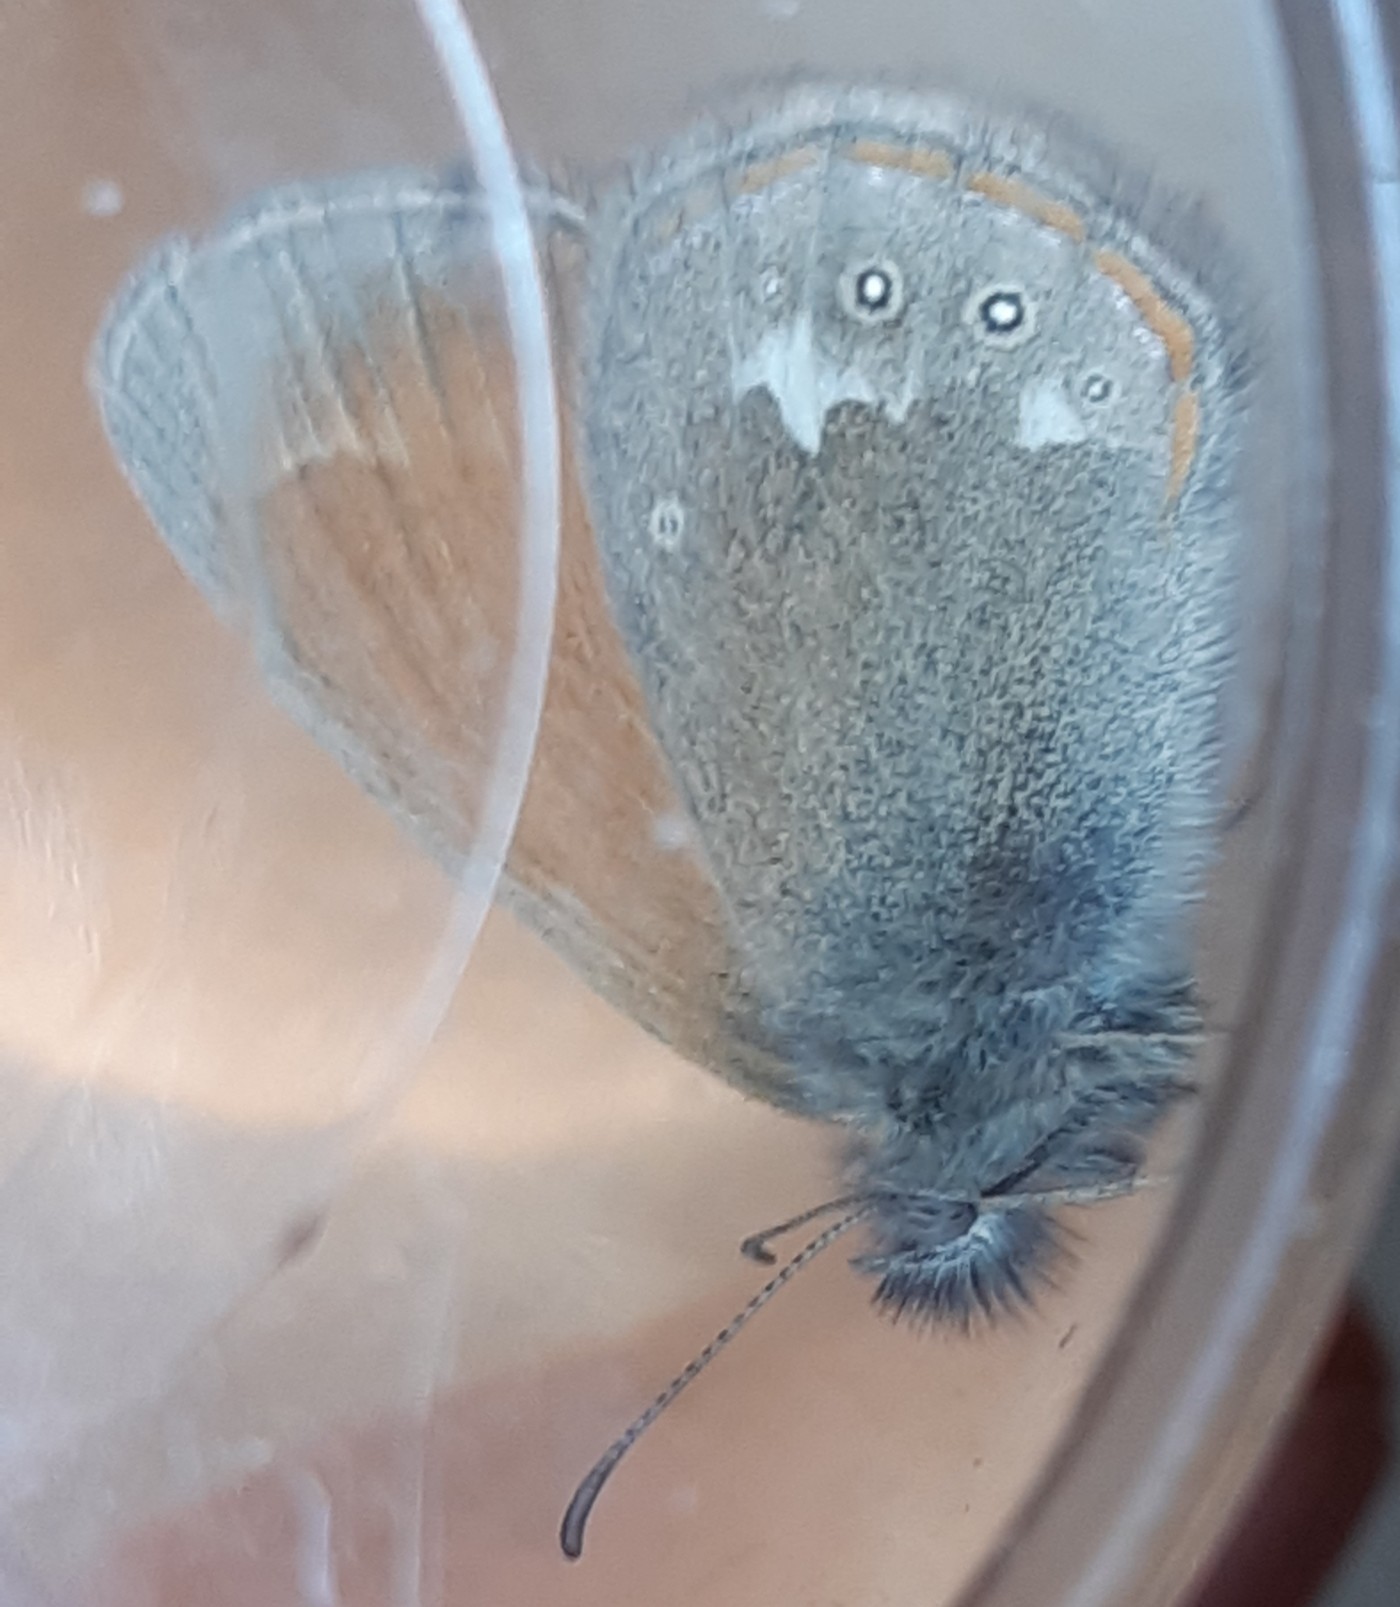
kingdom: Animalia
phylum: Arthropoda
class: Insecta
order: Lepidoptera
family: Nymphalidae
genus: Coenonympha
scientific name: Coenonympha iphis
